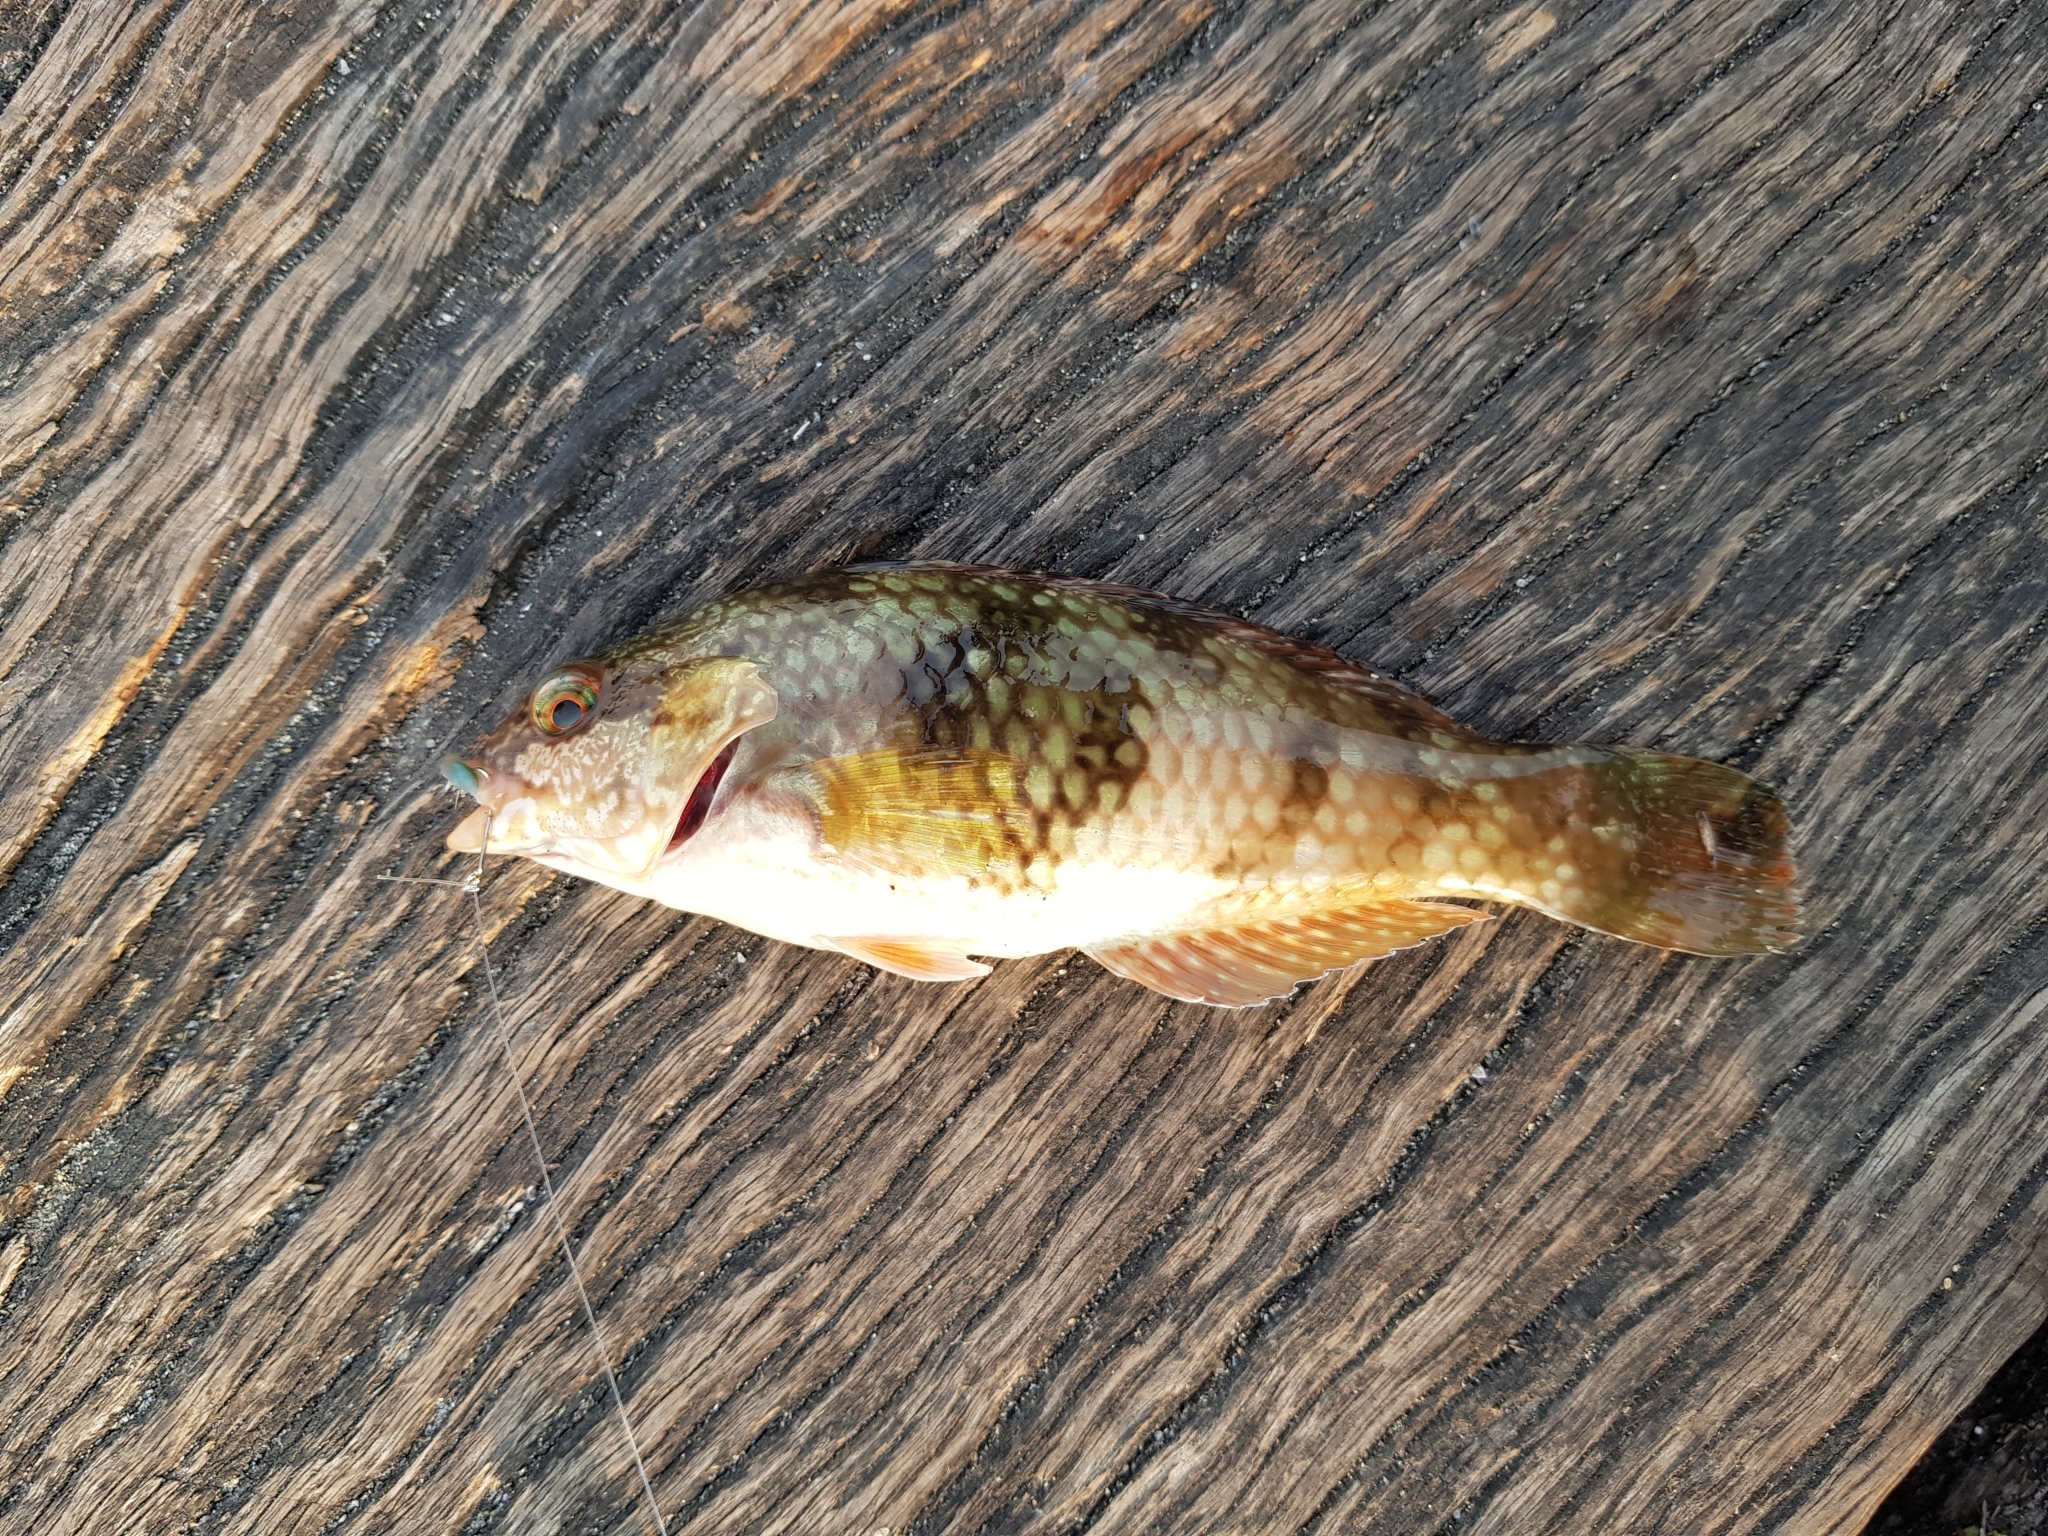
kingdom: Animalia
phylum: Chordata
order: Perciformes
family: Labridae
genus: Notolabrus
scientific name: Notolabrus tetricus
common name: Blue-throated parrotfish
